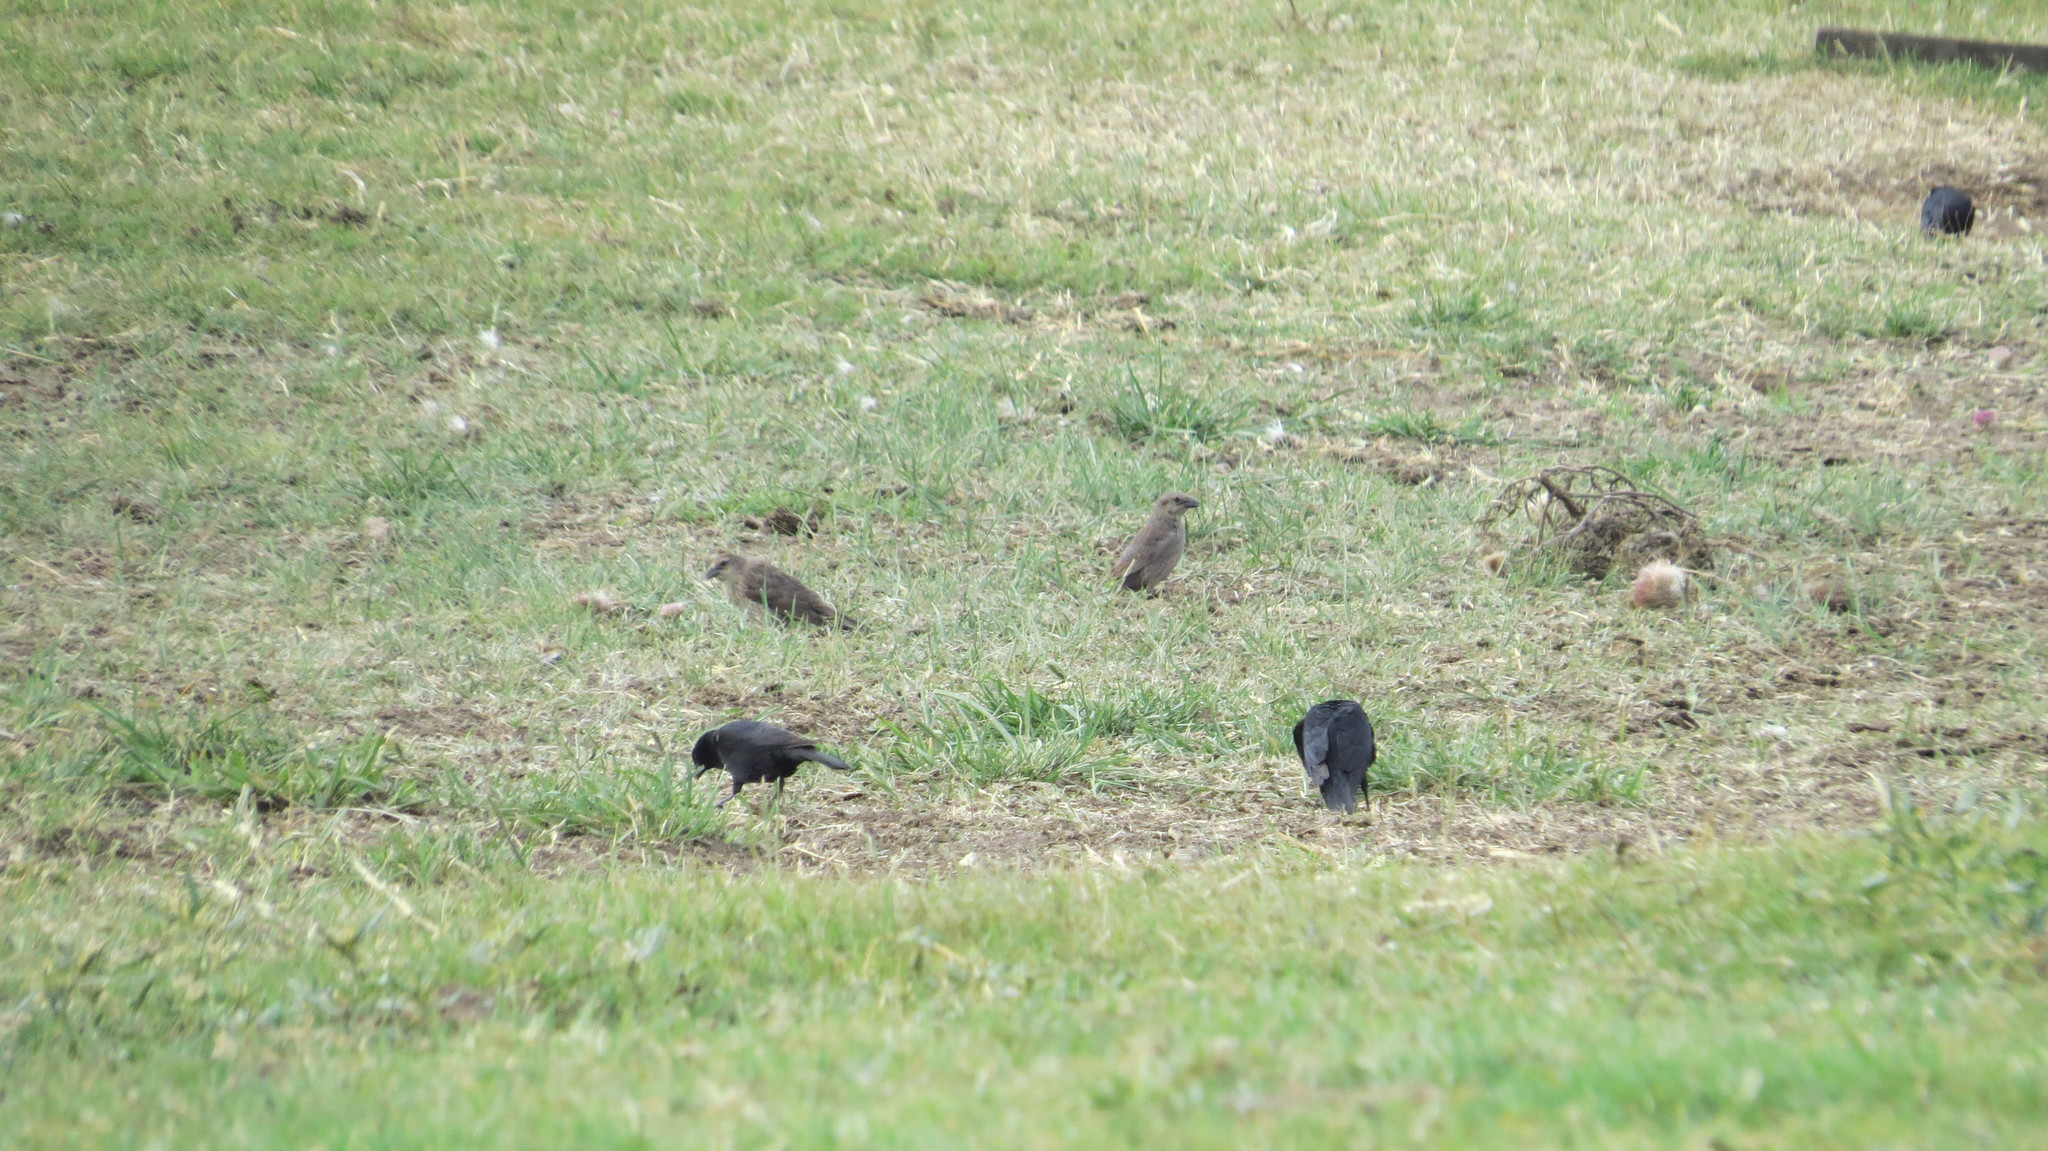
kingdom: Animalia
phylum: Chordata
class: Aves
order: Passeriformes
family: Icteridae
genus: Molothrus
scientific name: Molothrus bonariensis
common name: Shiny cowbird
